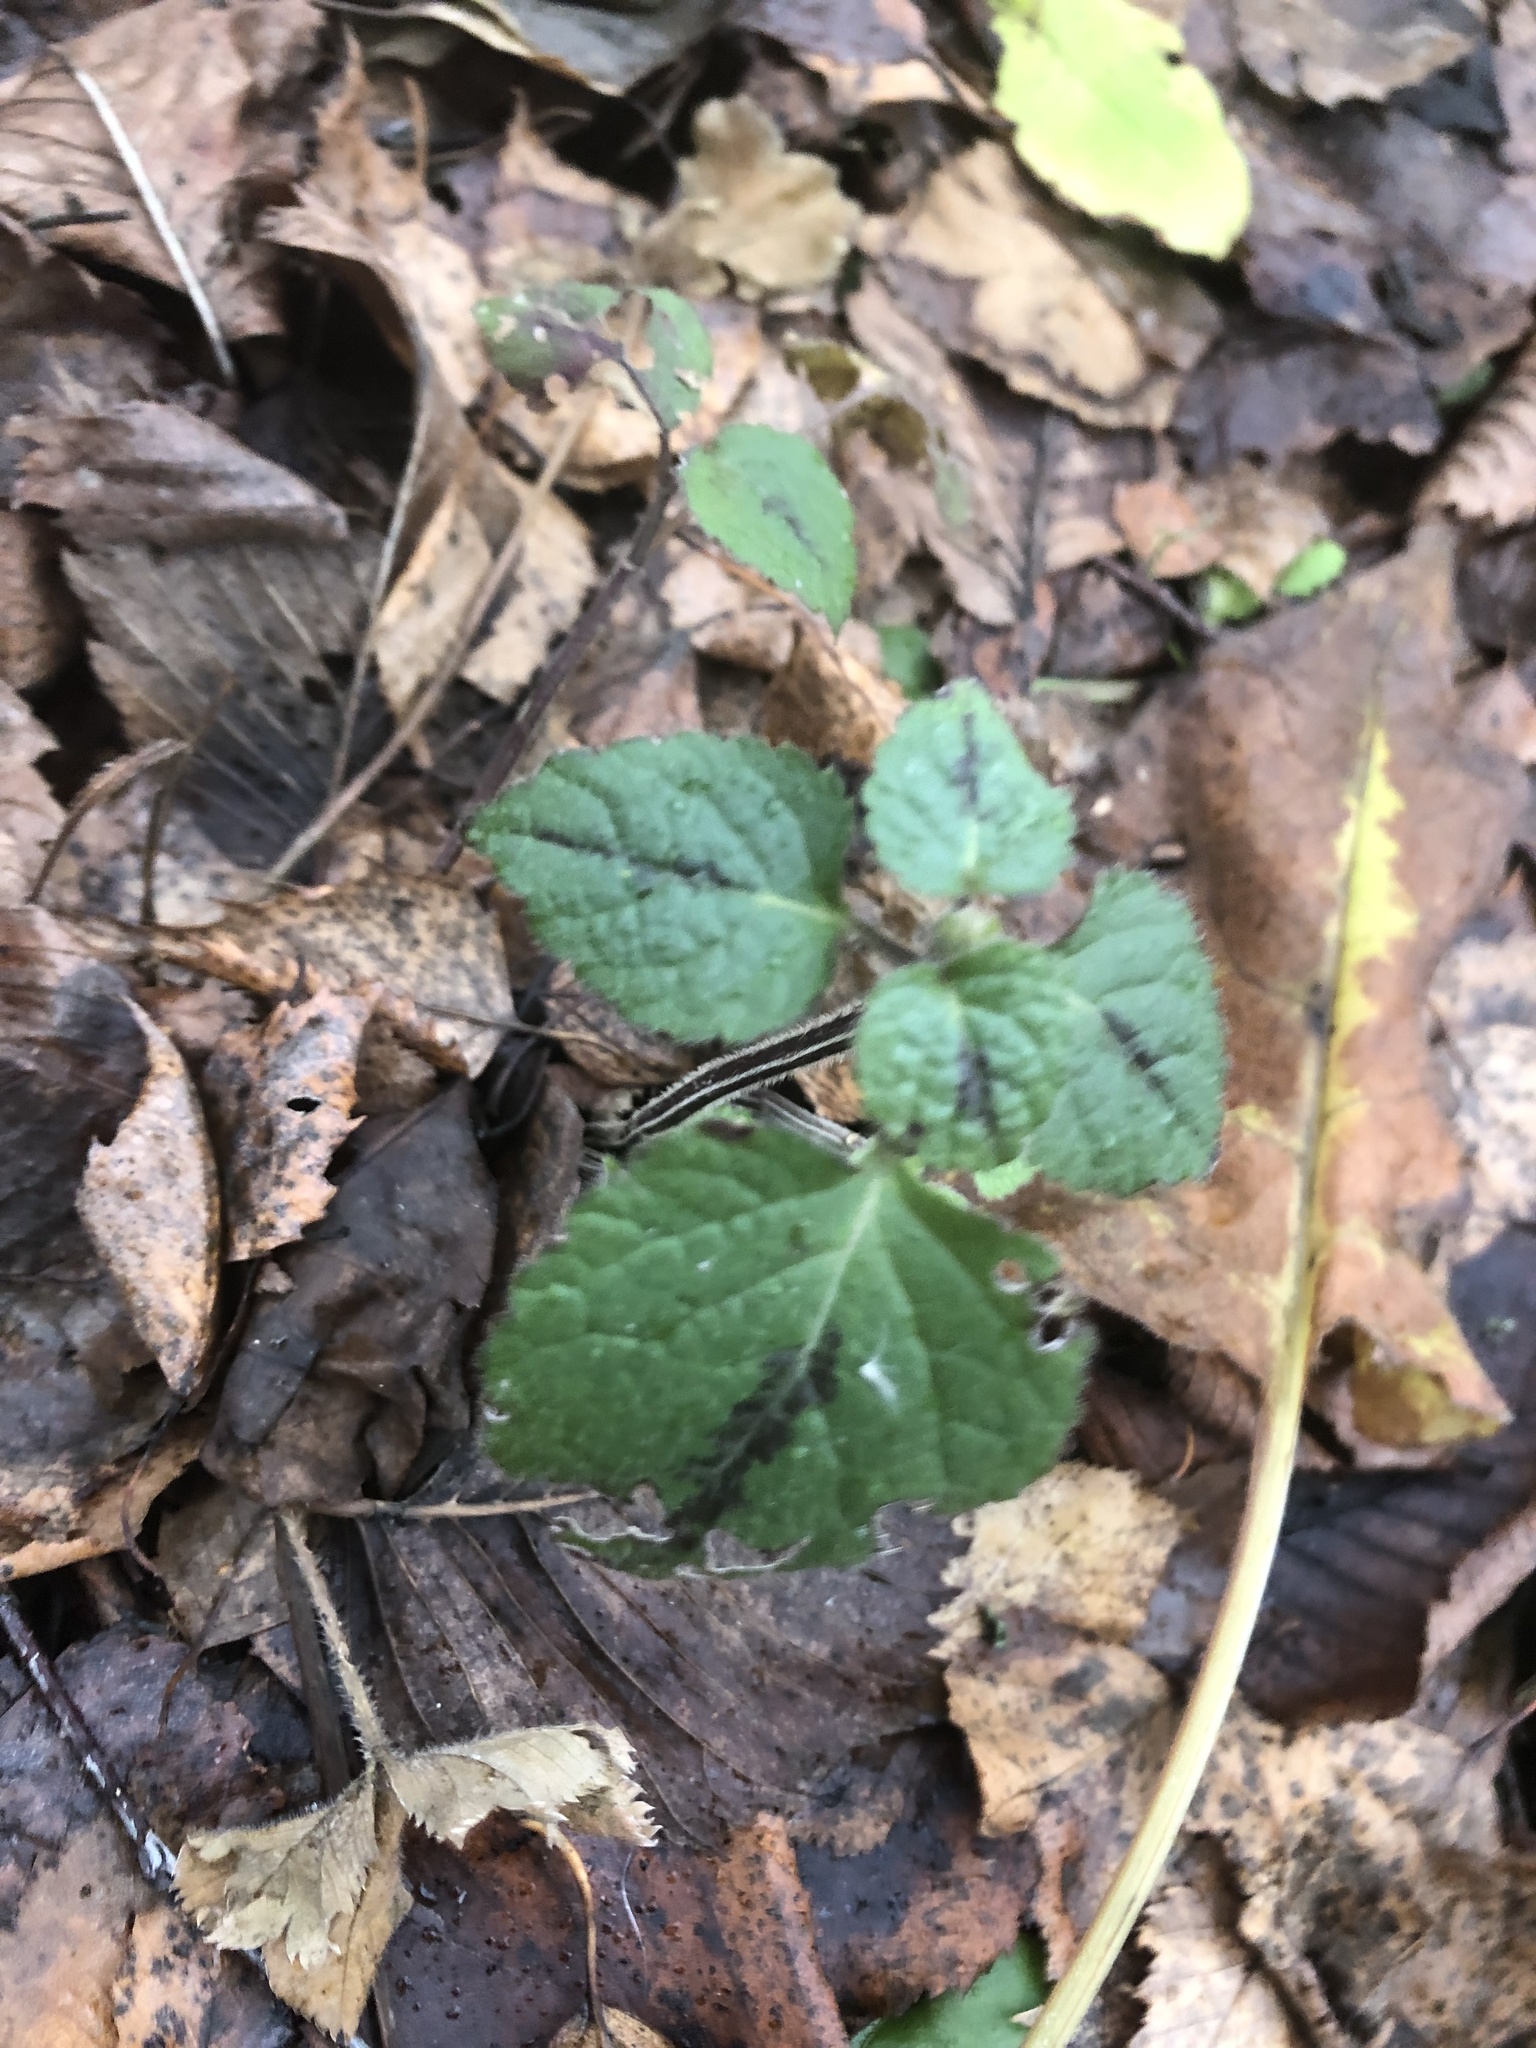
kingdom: Plantae
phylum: Tracheophyta
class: Magnoliopsida
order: Lamiales
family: Lamiaceae
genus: Lamium
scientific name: Lamium galeobdolon
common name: Yellow archangel
